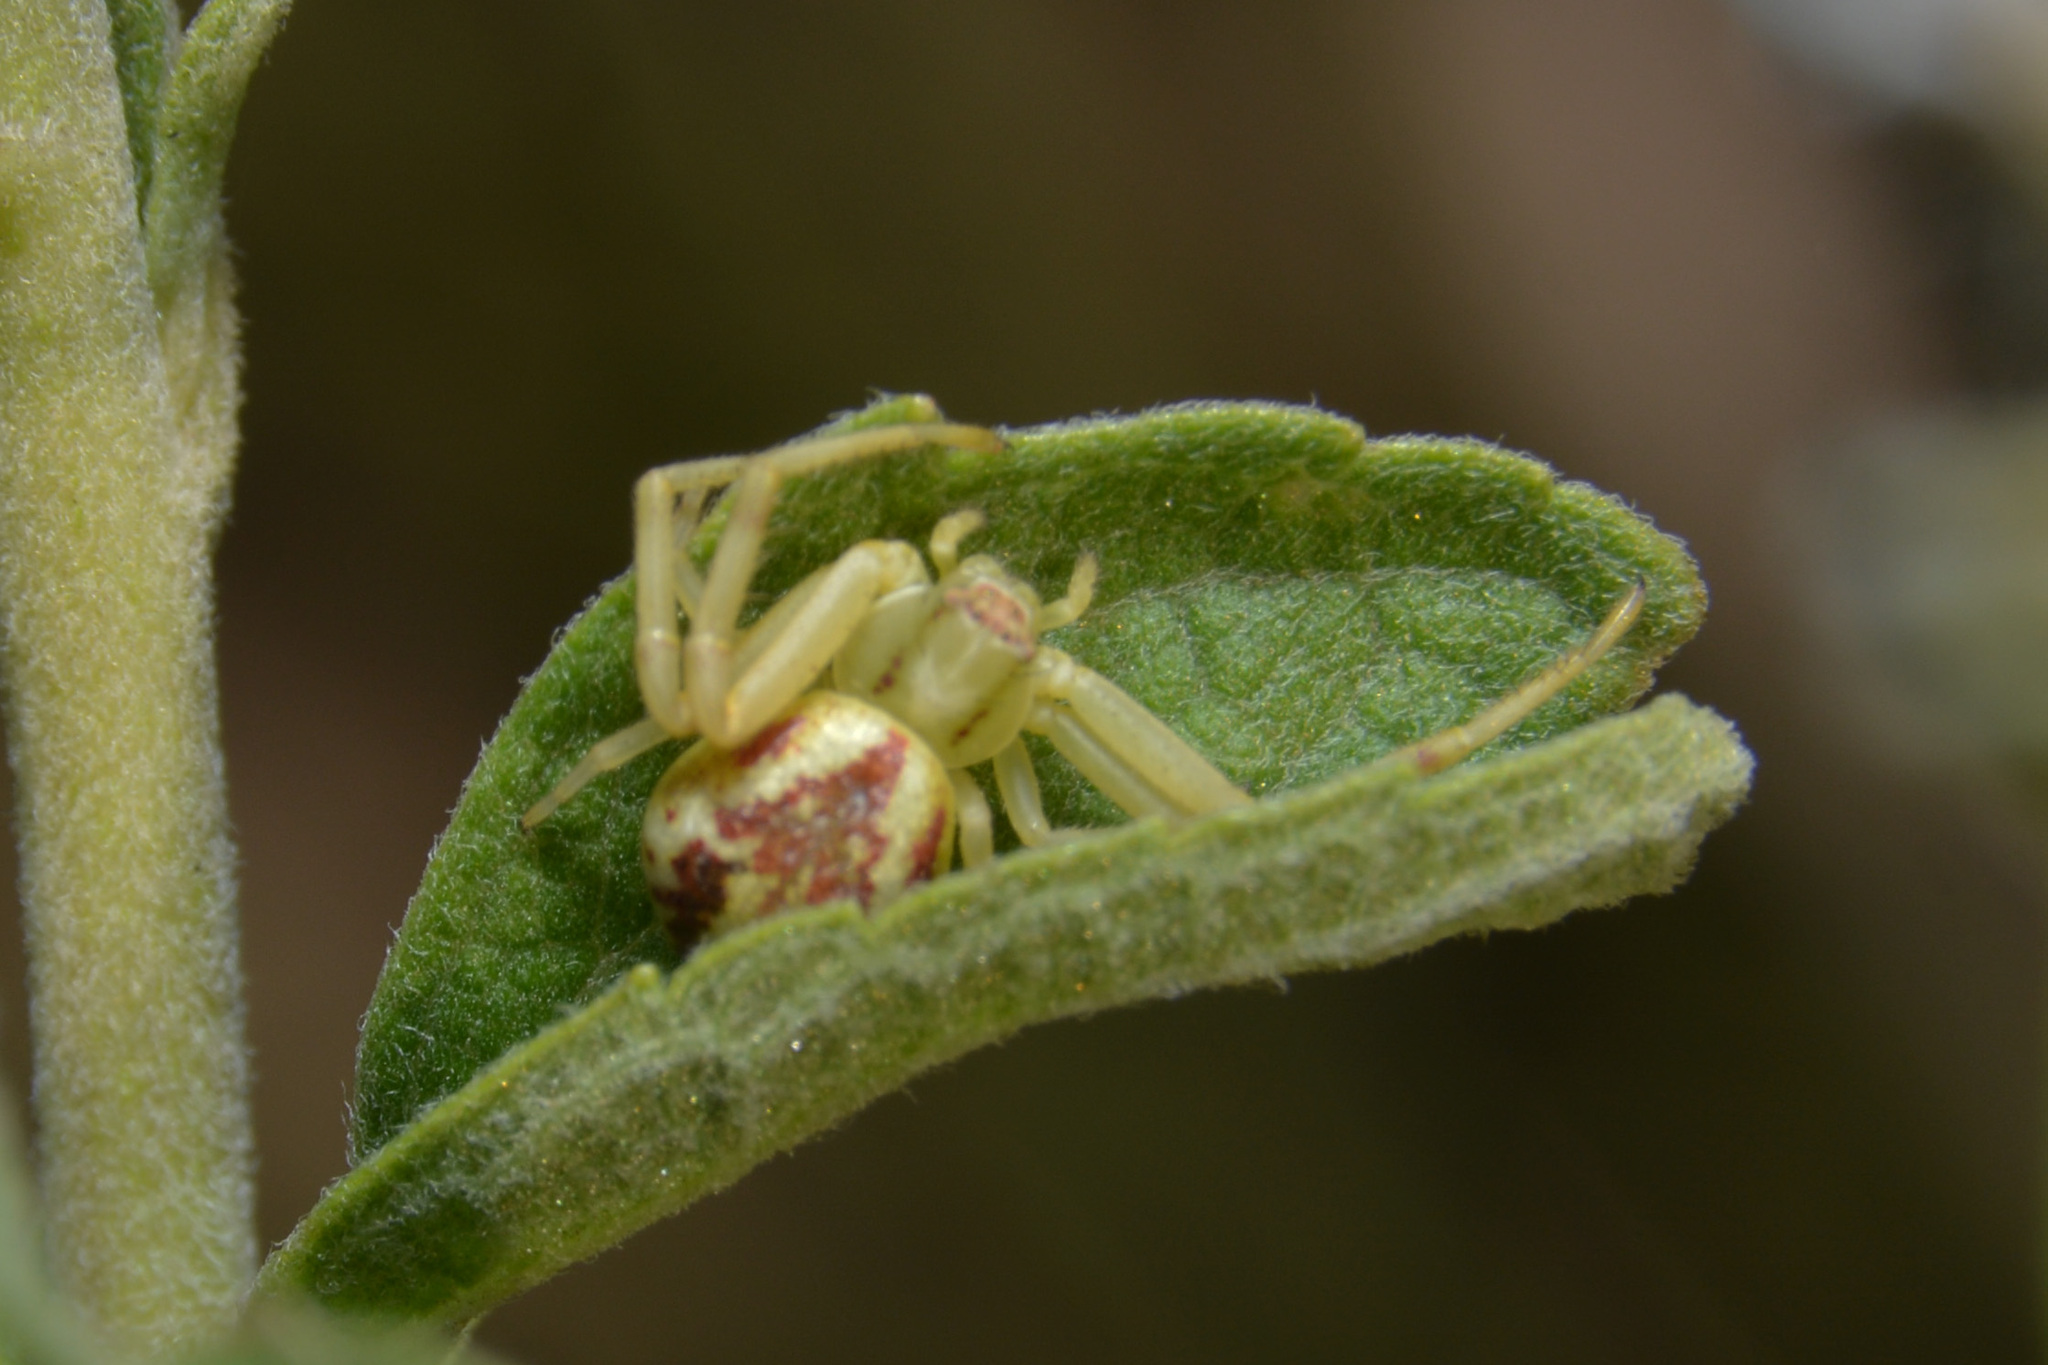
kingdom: Animalia
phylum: Arthropoda
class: Arachnida
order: Araneae
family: Thomisidae
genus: Misumenops
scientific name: Misumenops
